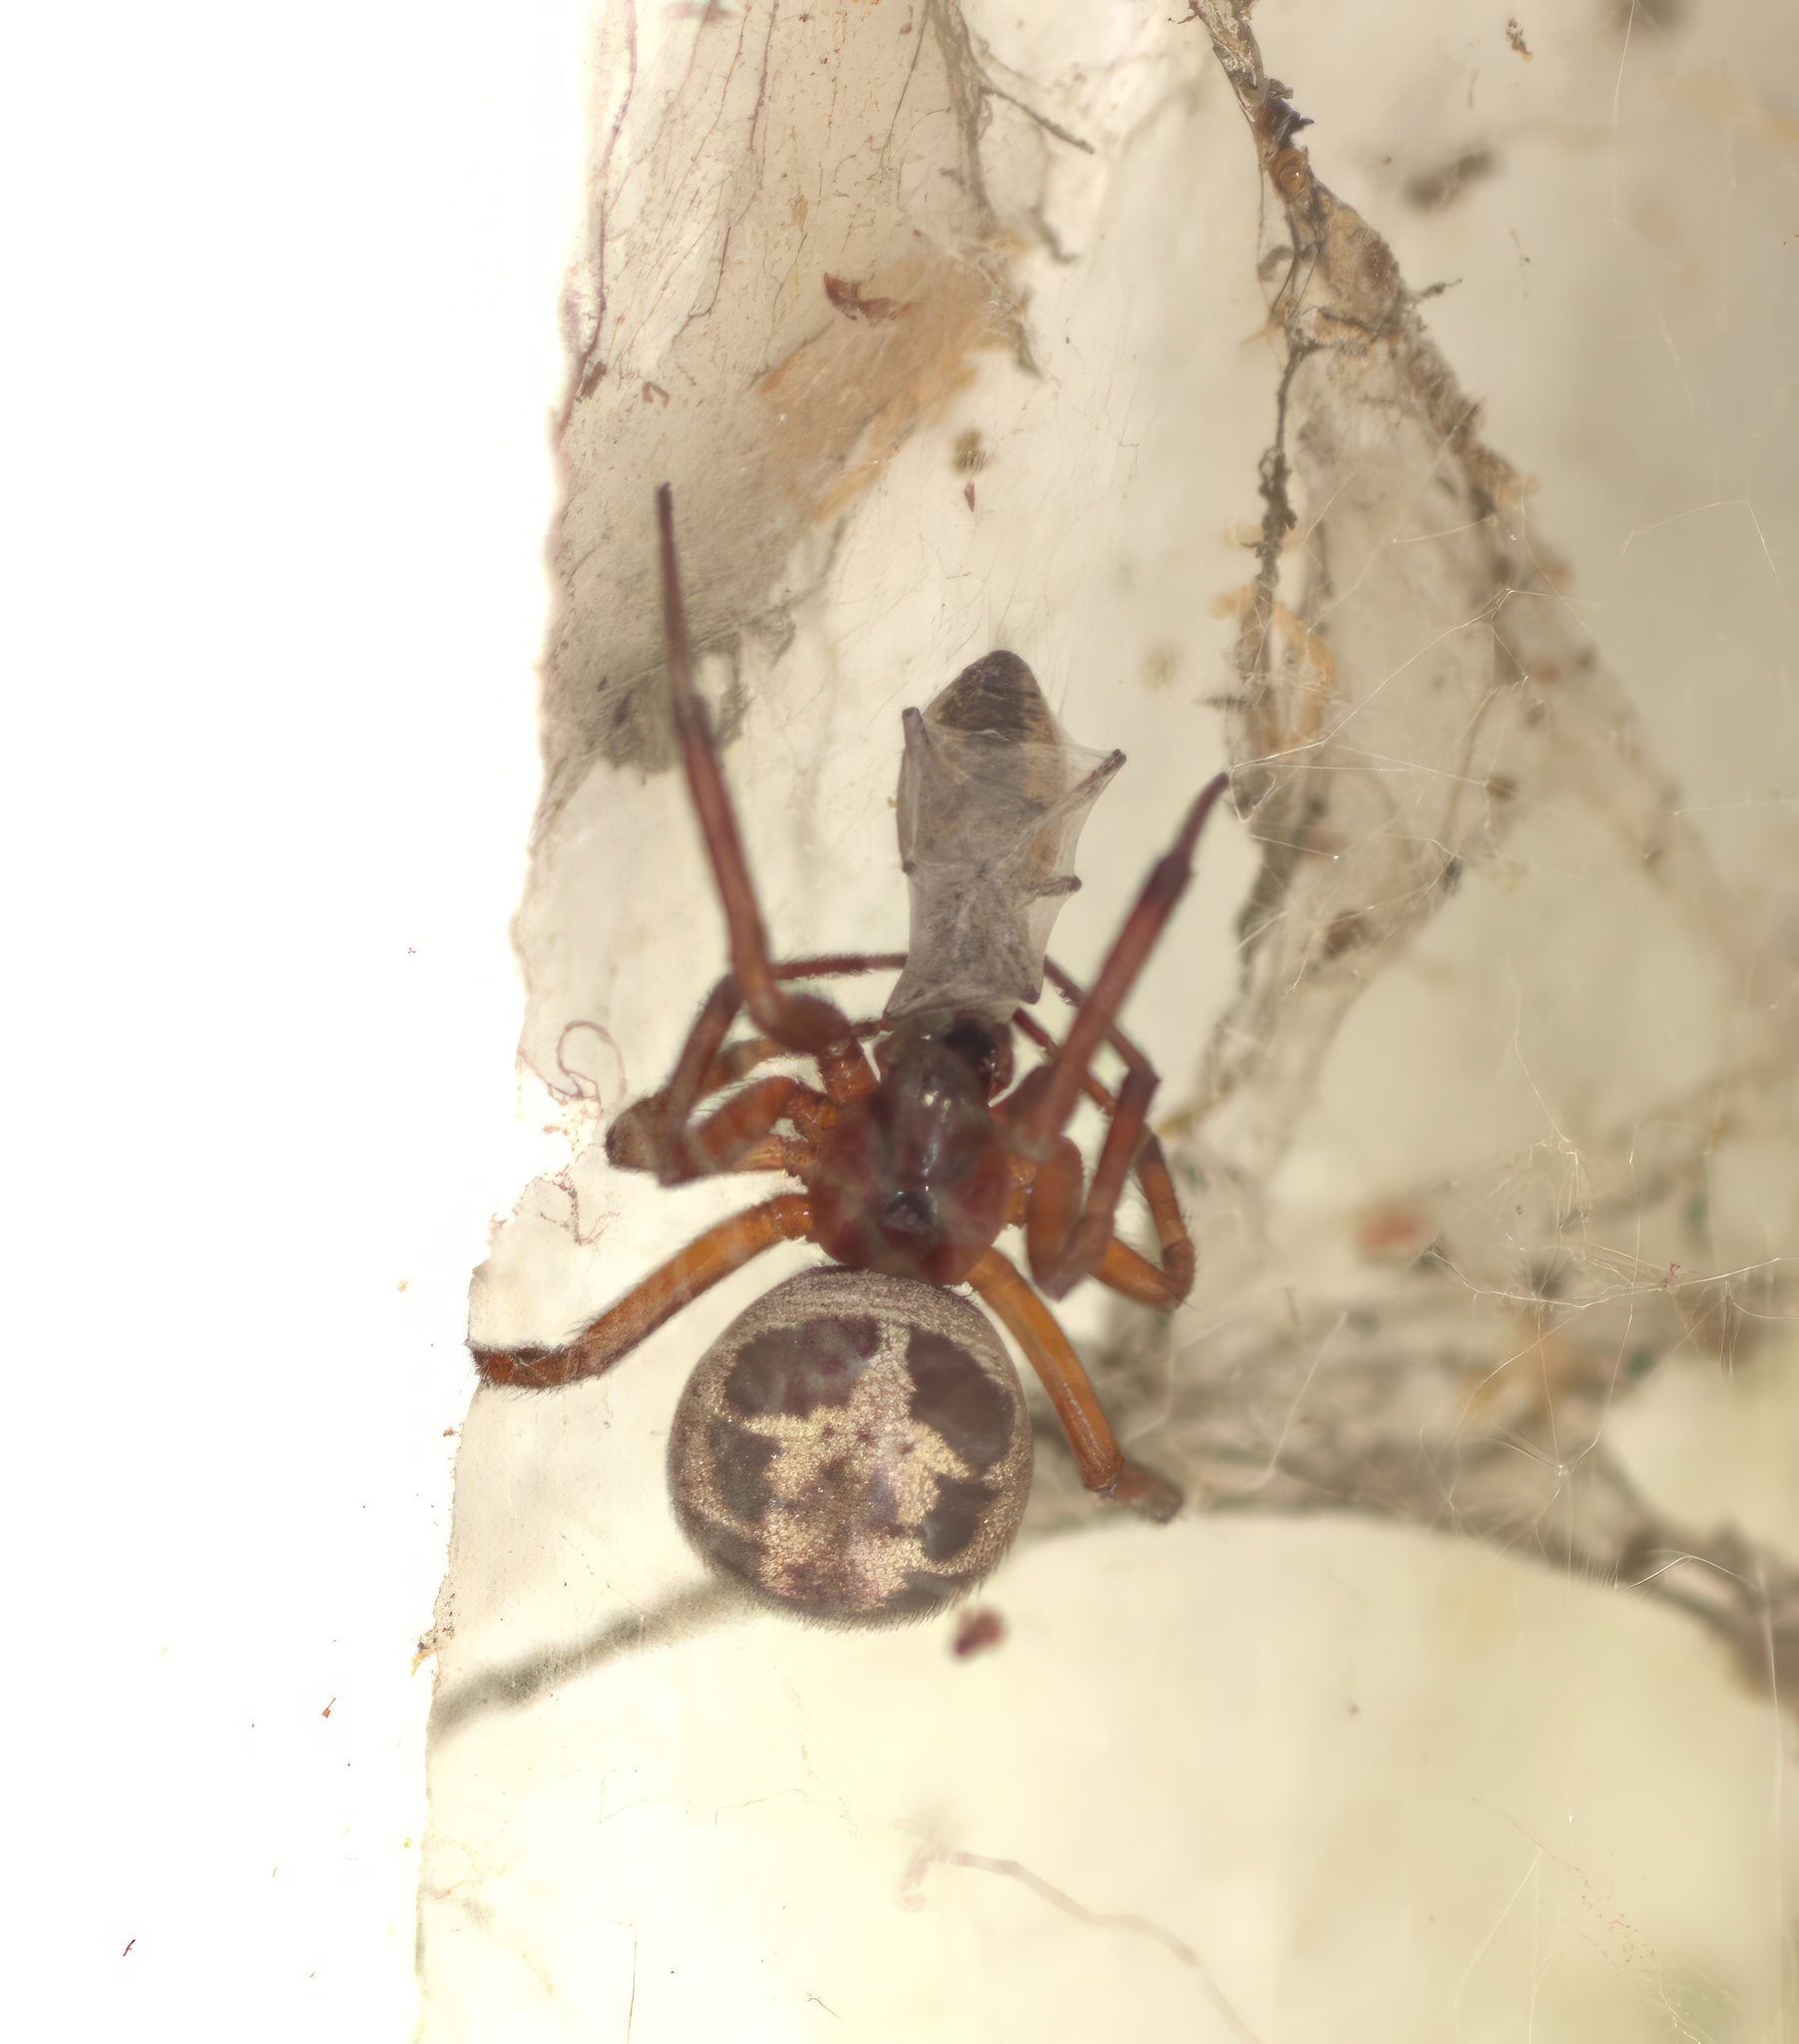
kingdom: Animalia
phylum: Arthropoda
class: Arachnida
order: Araneae
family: Theridiidae
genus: Steatoda
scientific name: Steatoda nobilis
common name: Cobweb weaver
